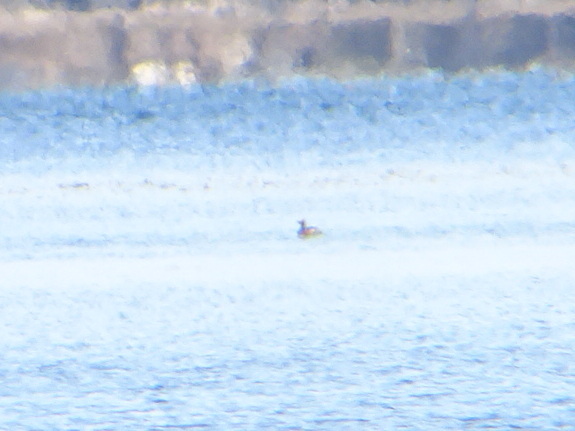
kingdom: Animalia
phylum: Chordata
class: Aves
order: Podicipediformes
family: Podicipedidae
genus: Podiceps
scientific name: Podiceps auritus
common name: Horned grebe
